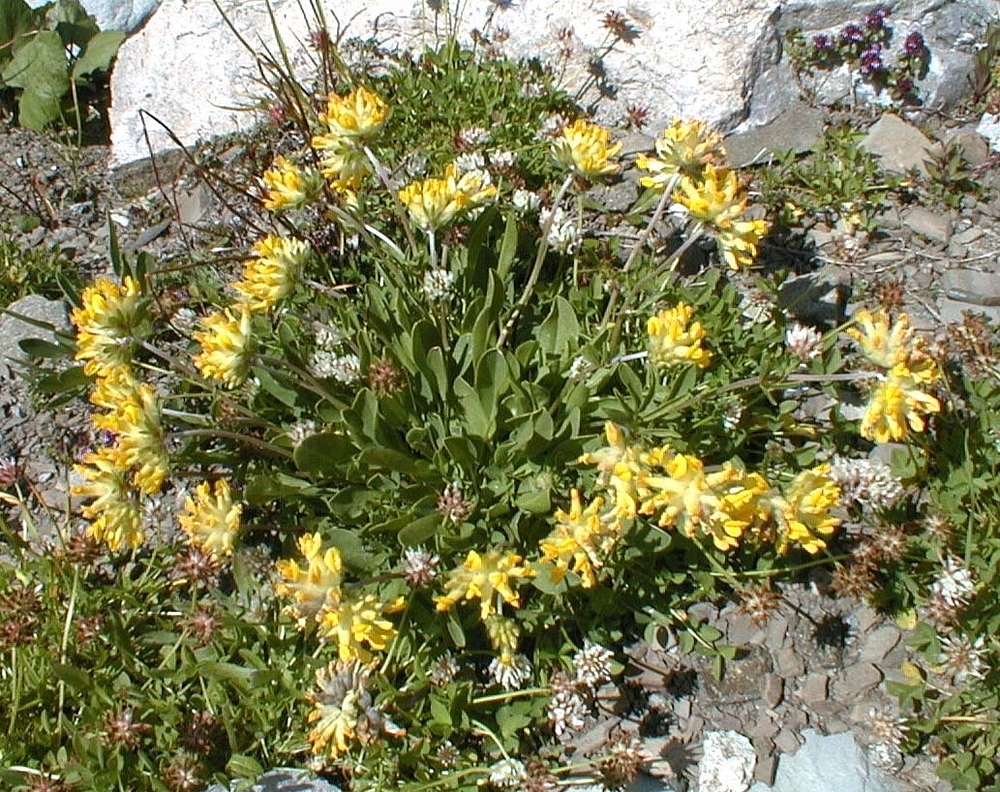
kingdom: Plantae
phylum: Tracheophyta
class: Magnoliopsida
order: Fabales
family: Fabaceae
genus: Anthyllis
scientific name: Anthyllis vulneraria
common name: Kidney vetch
